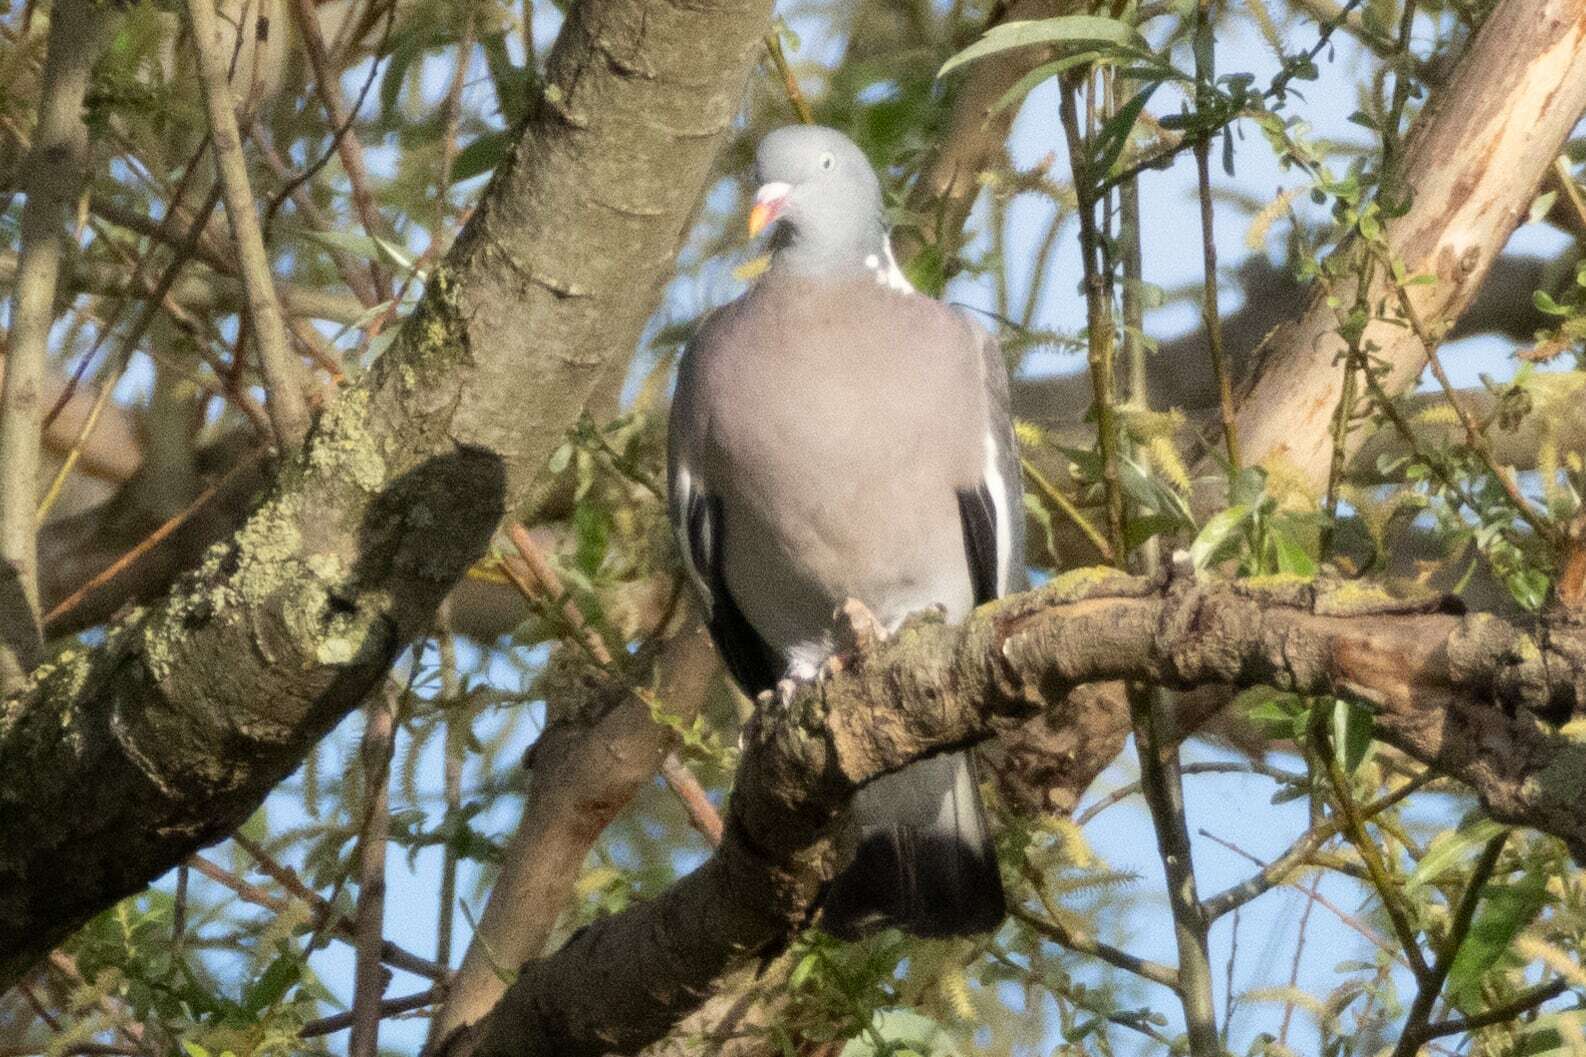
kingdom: Animalia
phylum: Chordata
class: Aves
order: Columbiformes
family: Columbidae
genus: Columba
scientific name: Columba palumbus
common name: Common wood pigeon
